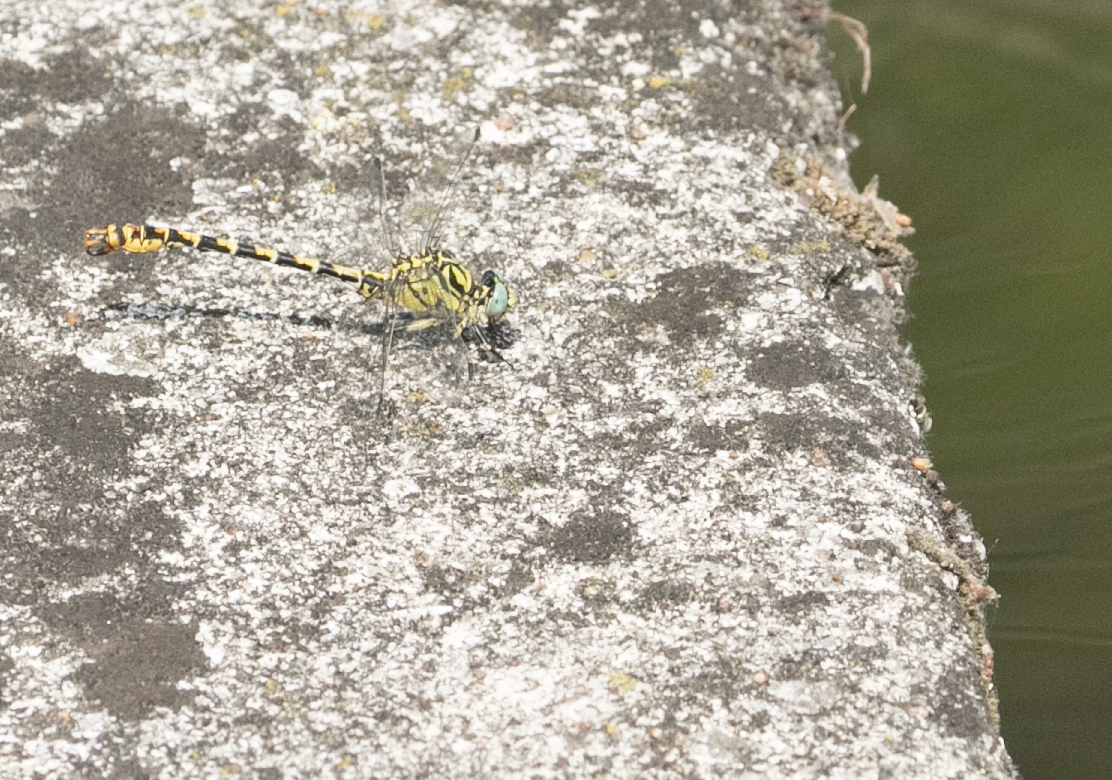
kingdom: Animalia
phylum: Arthropoda
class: Insecta
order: Odonata
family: Gomphidae
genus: Onychogomphus
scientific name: Onychogomphus forcipatus
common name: Small pincertail
